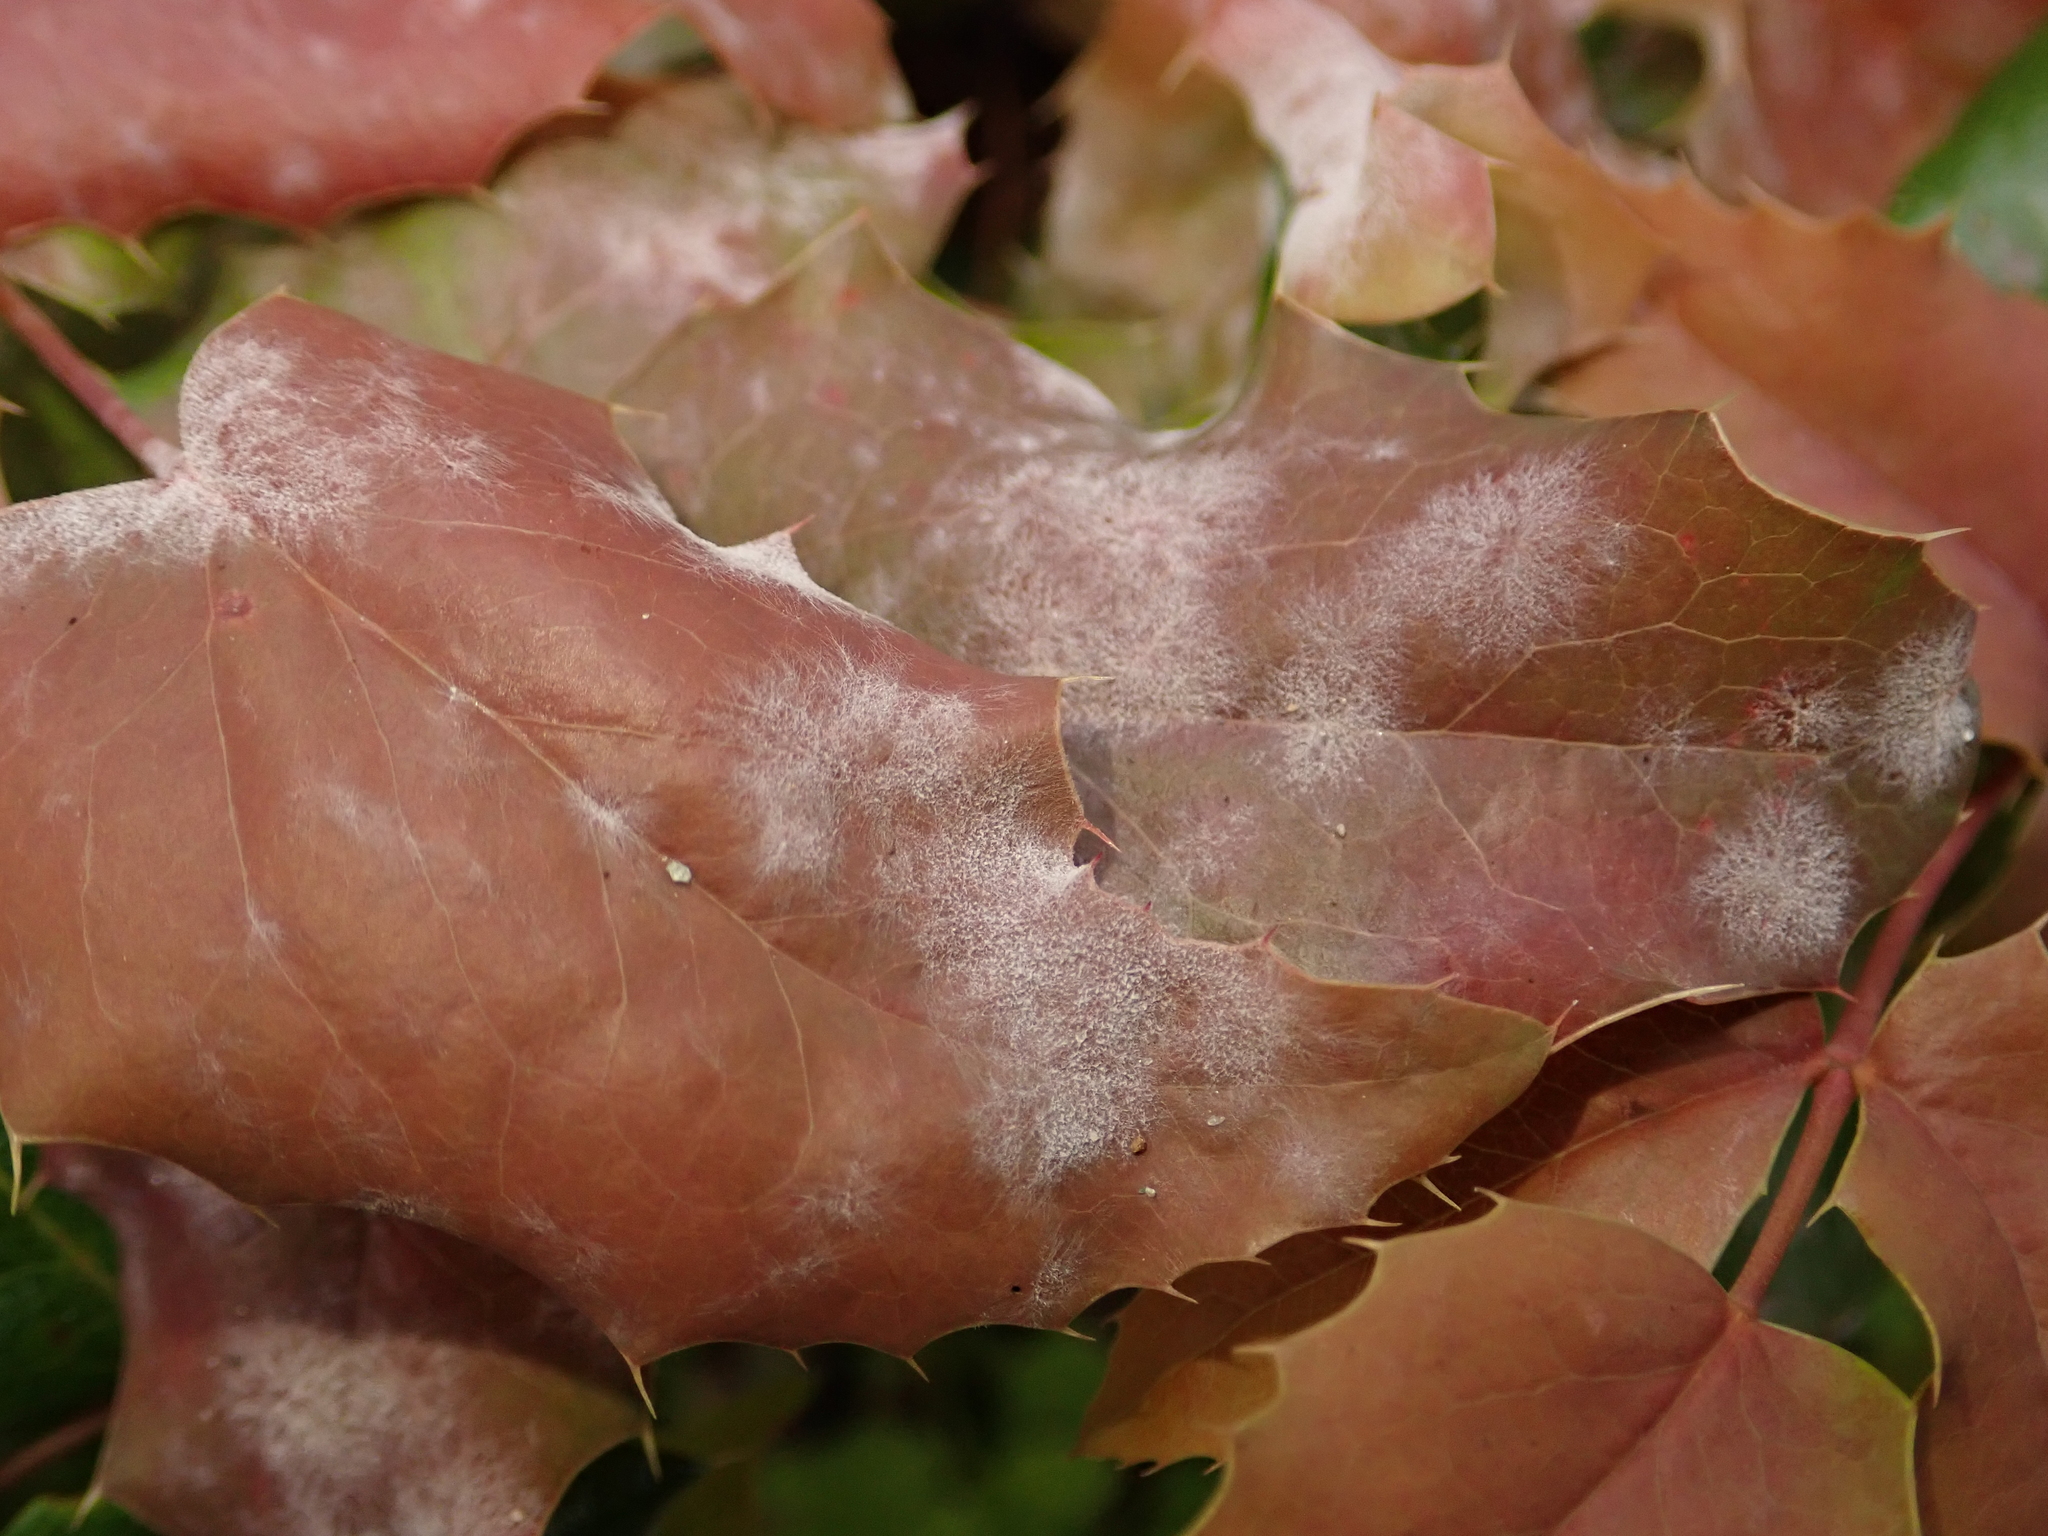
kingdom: Fungi
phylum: Ascomycota
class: Leotiomycetes
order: Helotiales
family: Erysiphaceae
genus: Erysiphe
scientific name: Erysiphe berberidis
